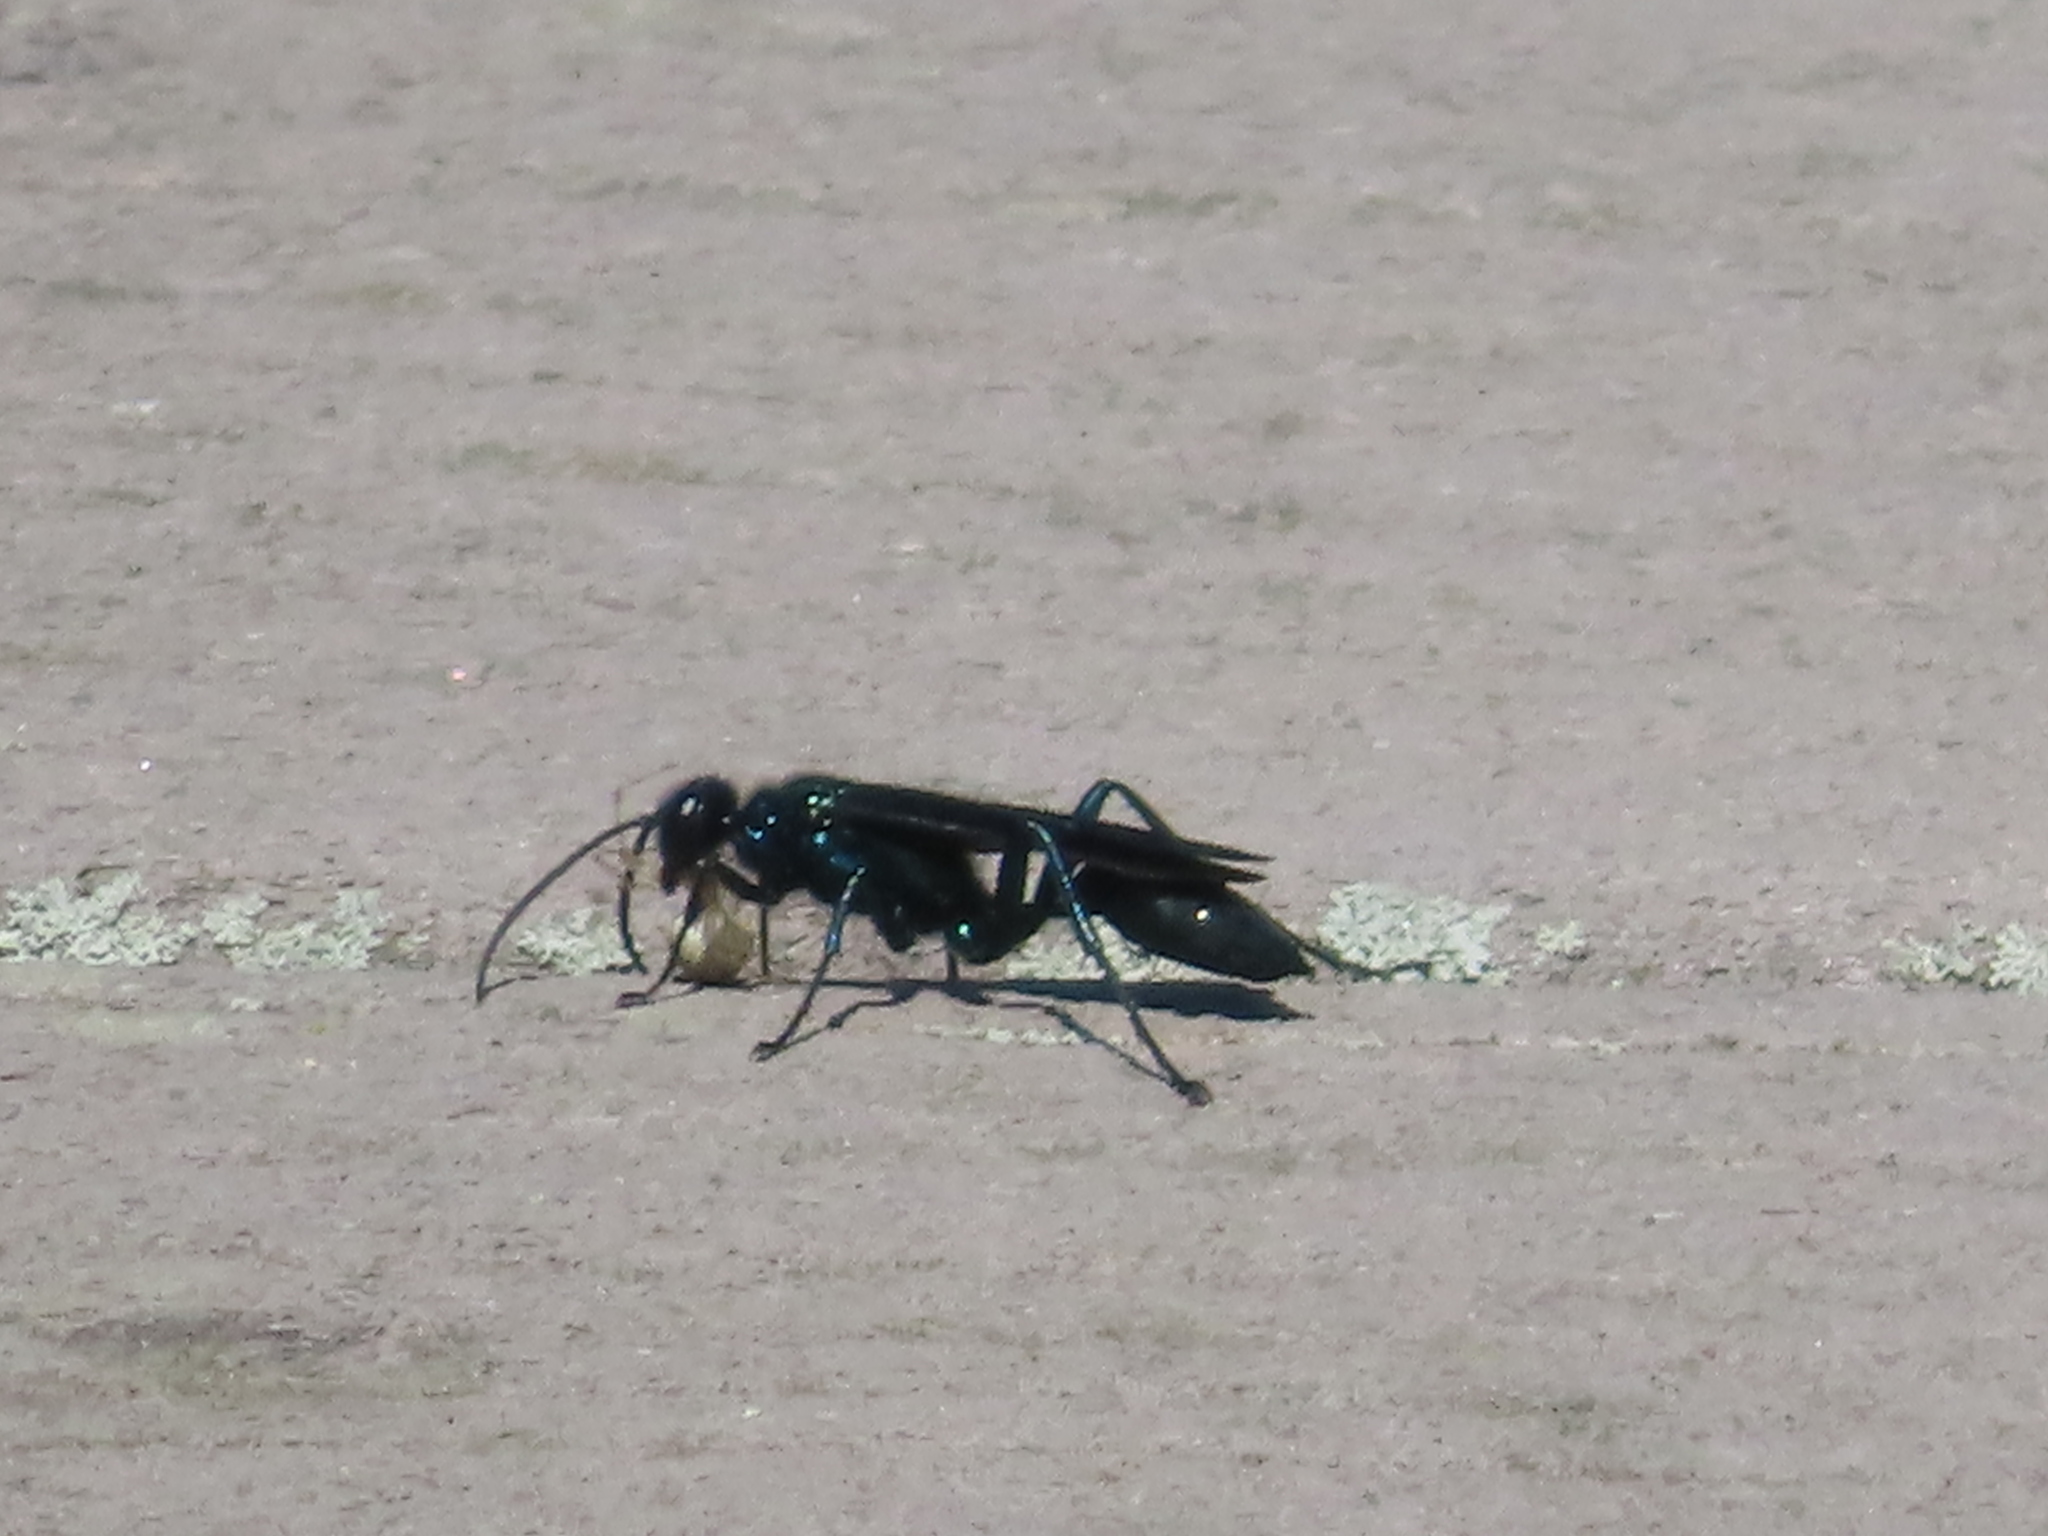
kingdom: Animalia
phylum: Arthropoda
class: Insecta
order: Hymenoptera
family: Sphecidae
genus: Chalybion
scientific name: Chalybion californicum
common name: Mud dauber
